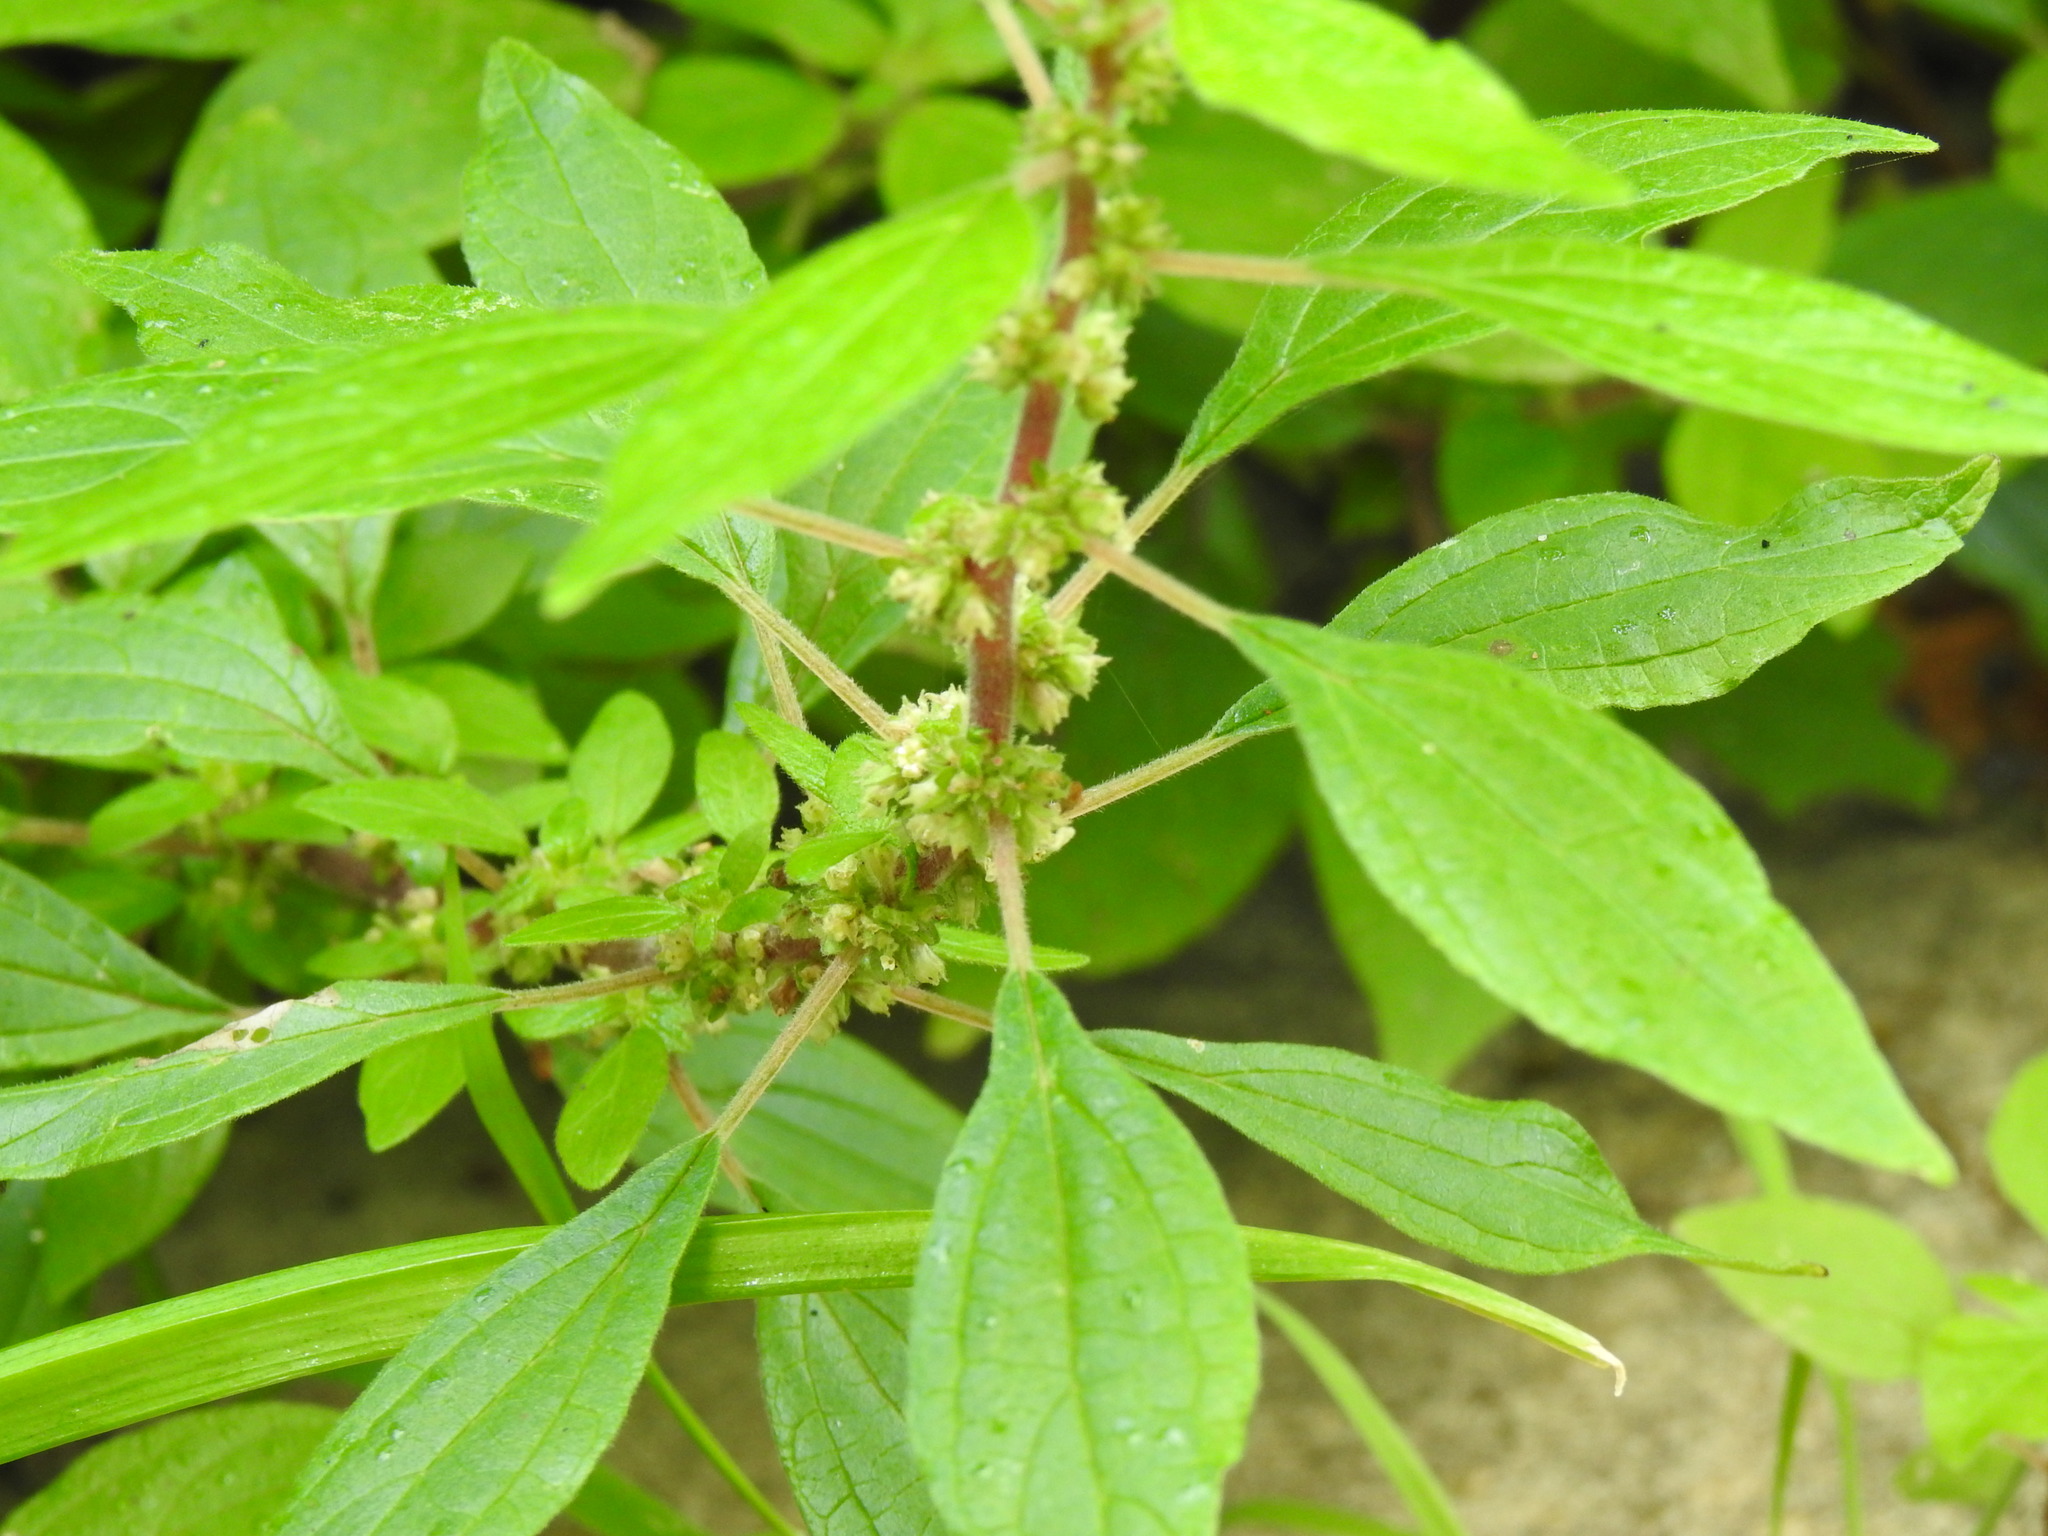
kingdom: Plantae
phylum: Tracheophyta
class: Magnoliopsida
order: Rosales
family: Urticaceae
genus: Parietaria
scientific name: Parietaria judaica
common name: Pellitory-of-the-wall
